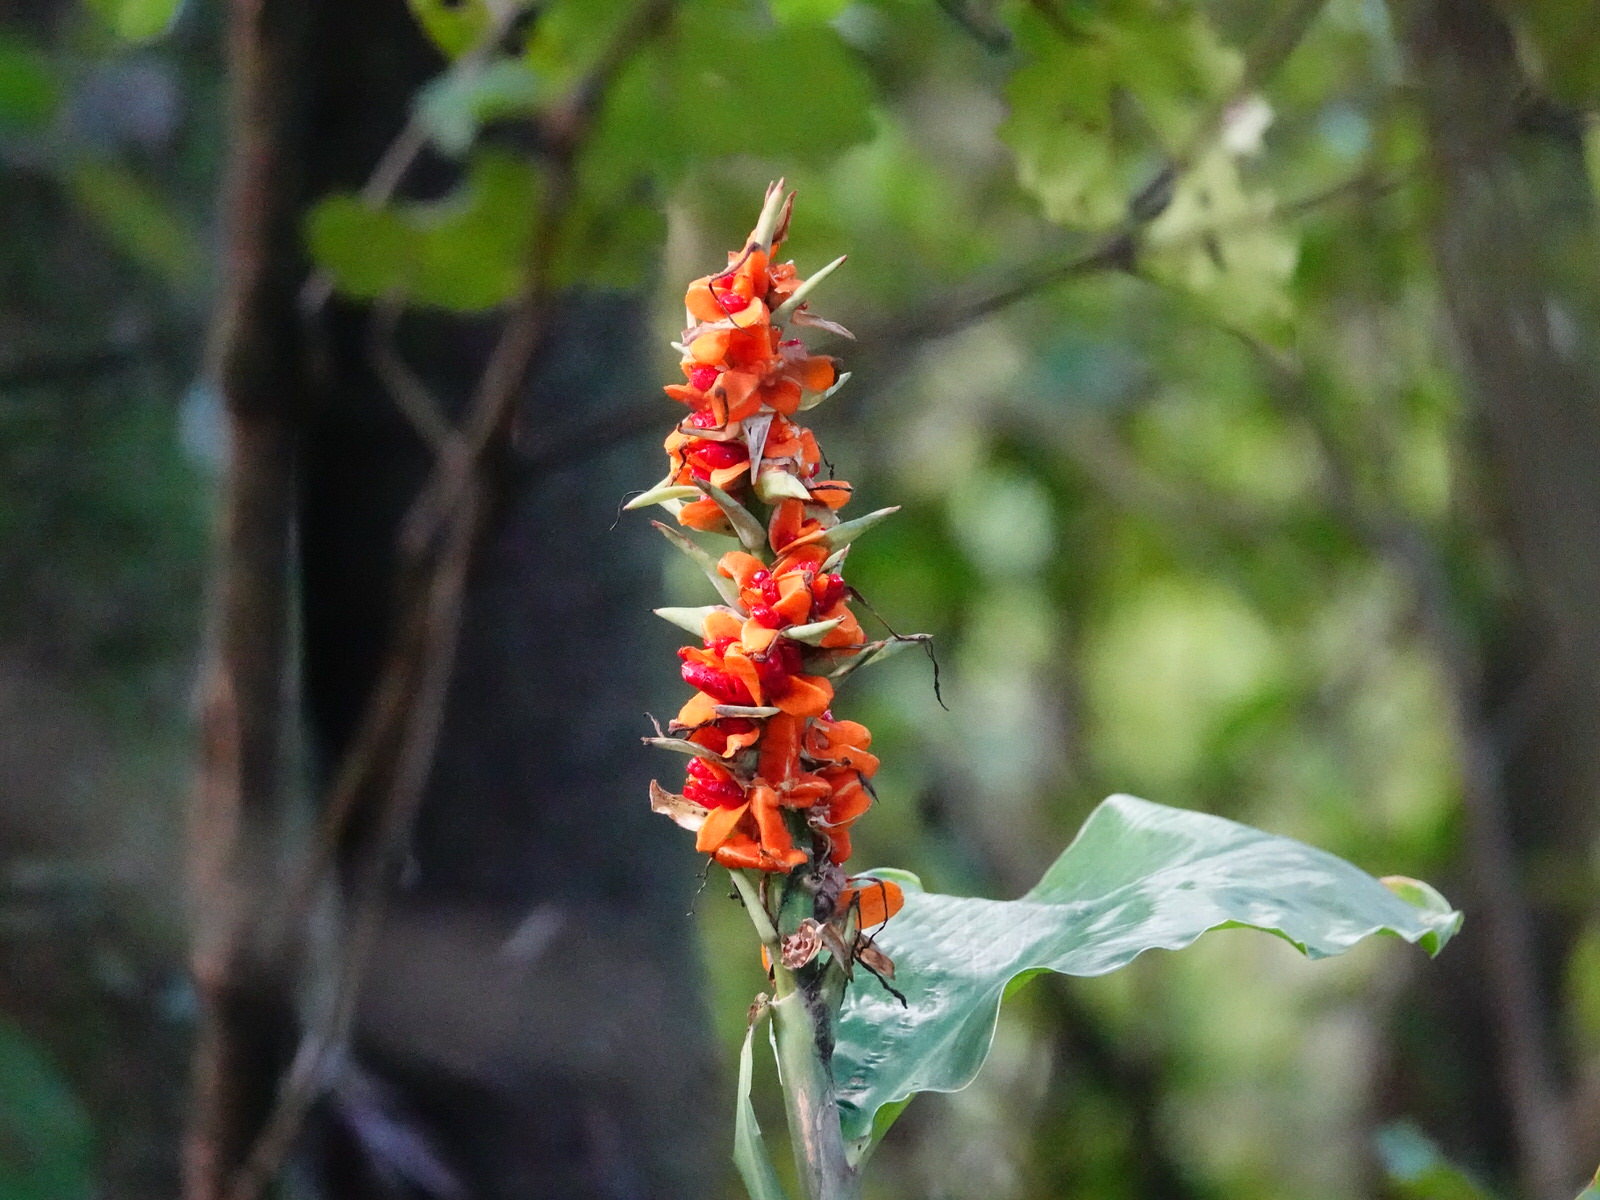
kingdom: Plantae
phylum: Tracheophyta
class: Liliopsida
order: Zingiberales
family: Zingiberaceae
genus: Hedychium
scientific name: Hedychium gardnerianum
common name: Himalayan ginger
